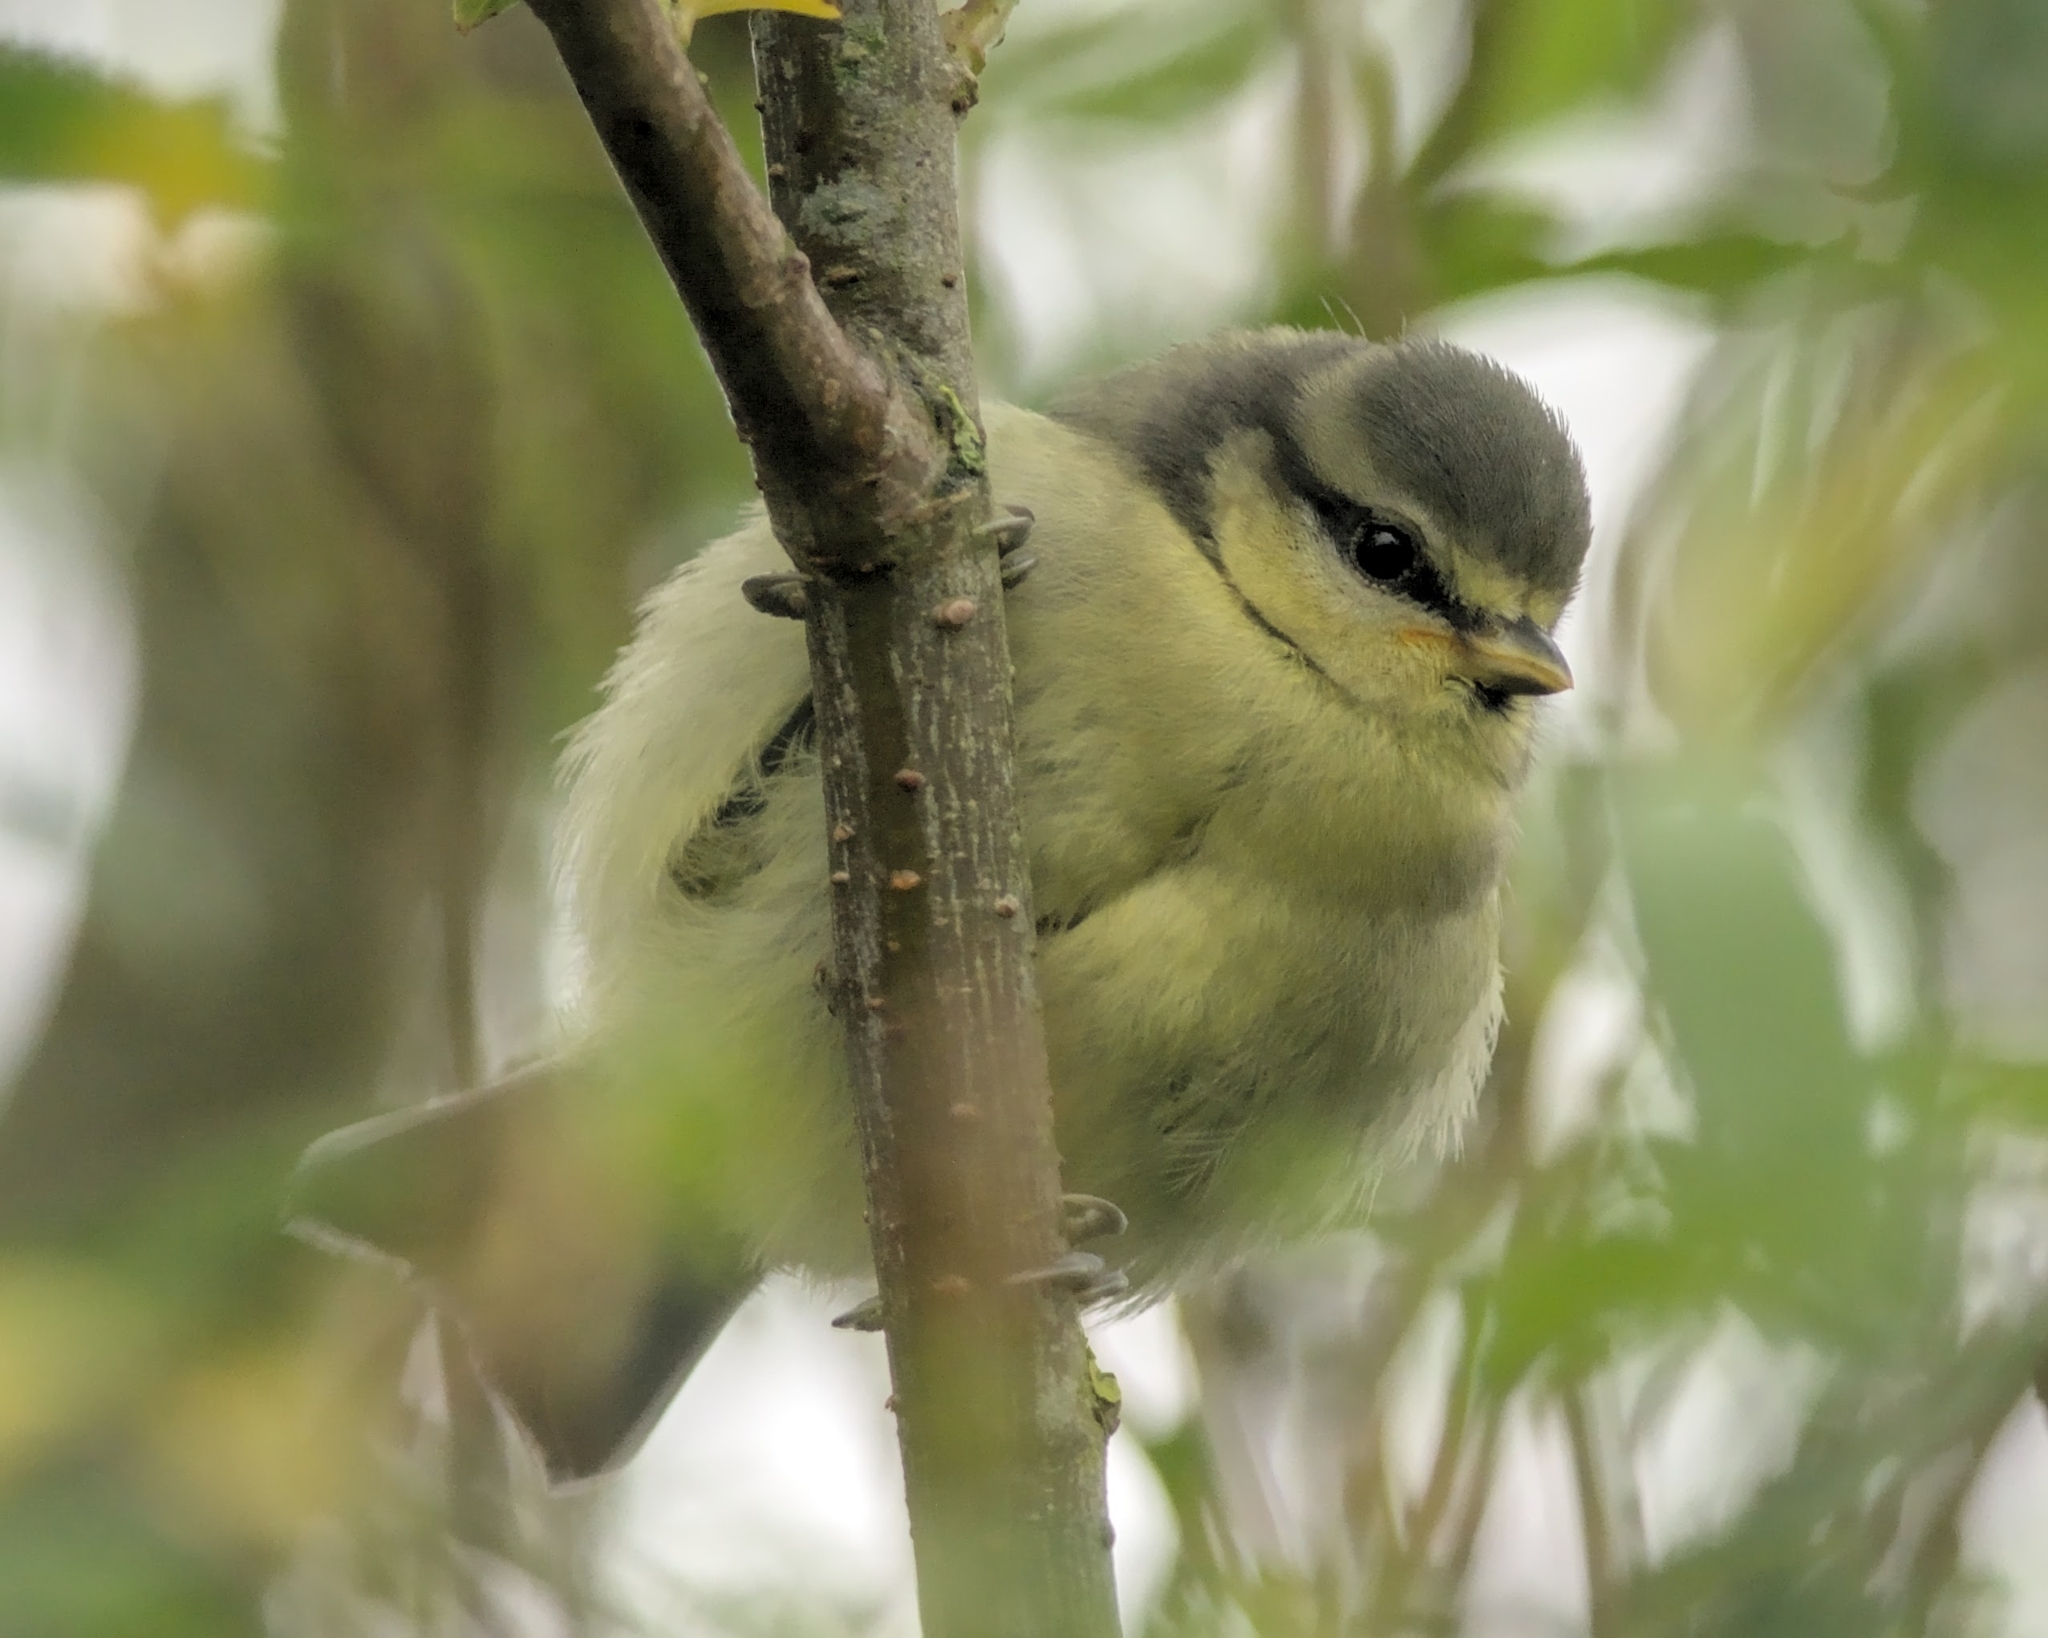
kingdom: Animalia
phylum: Chordata
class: Aves
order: Passeriformes
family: Paridae
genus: Cyanistes
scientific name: Cyanistes caeruleus
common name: Eurasian blue tit
